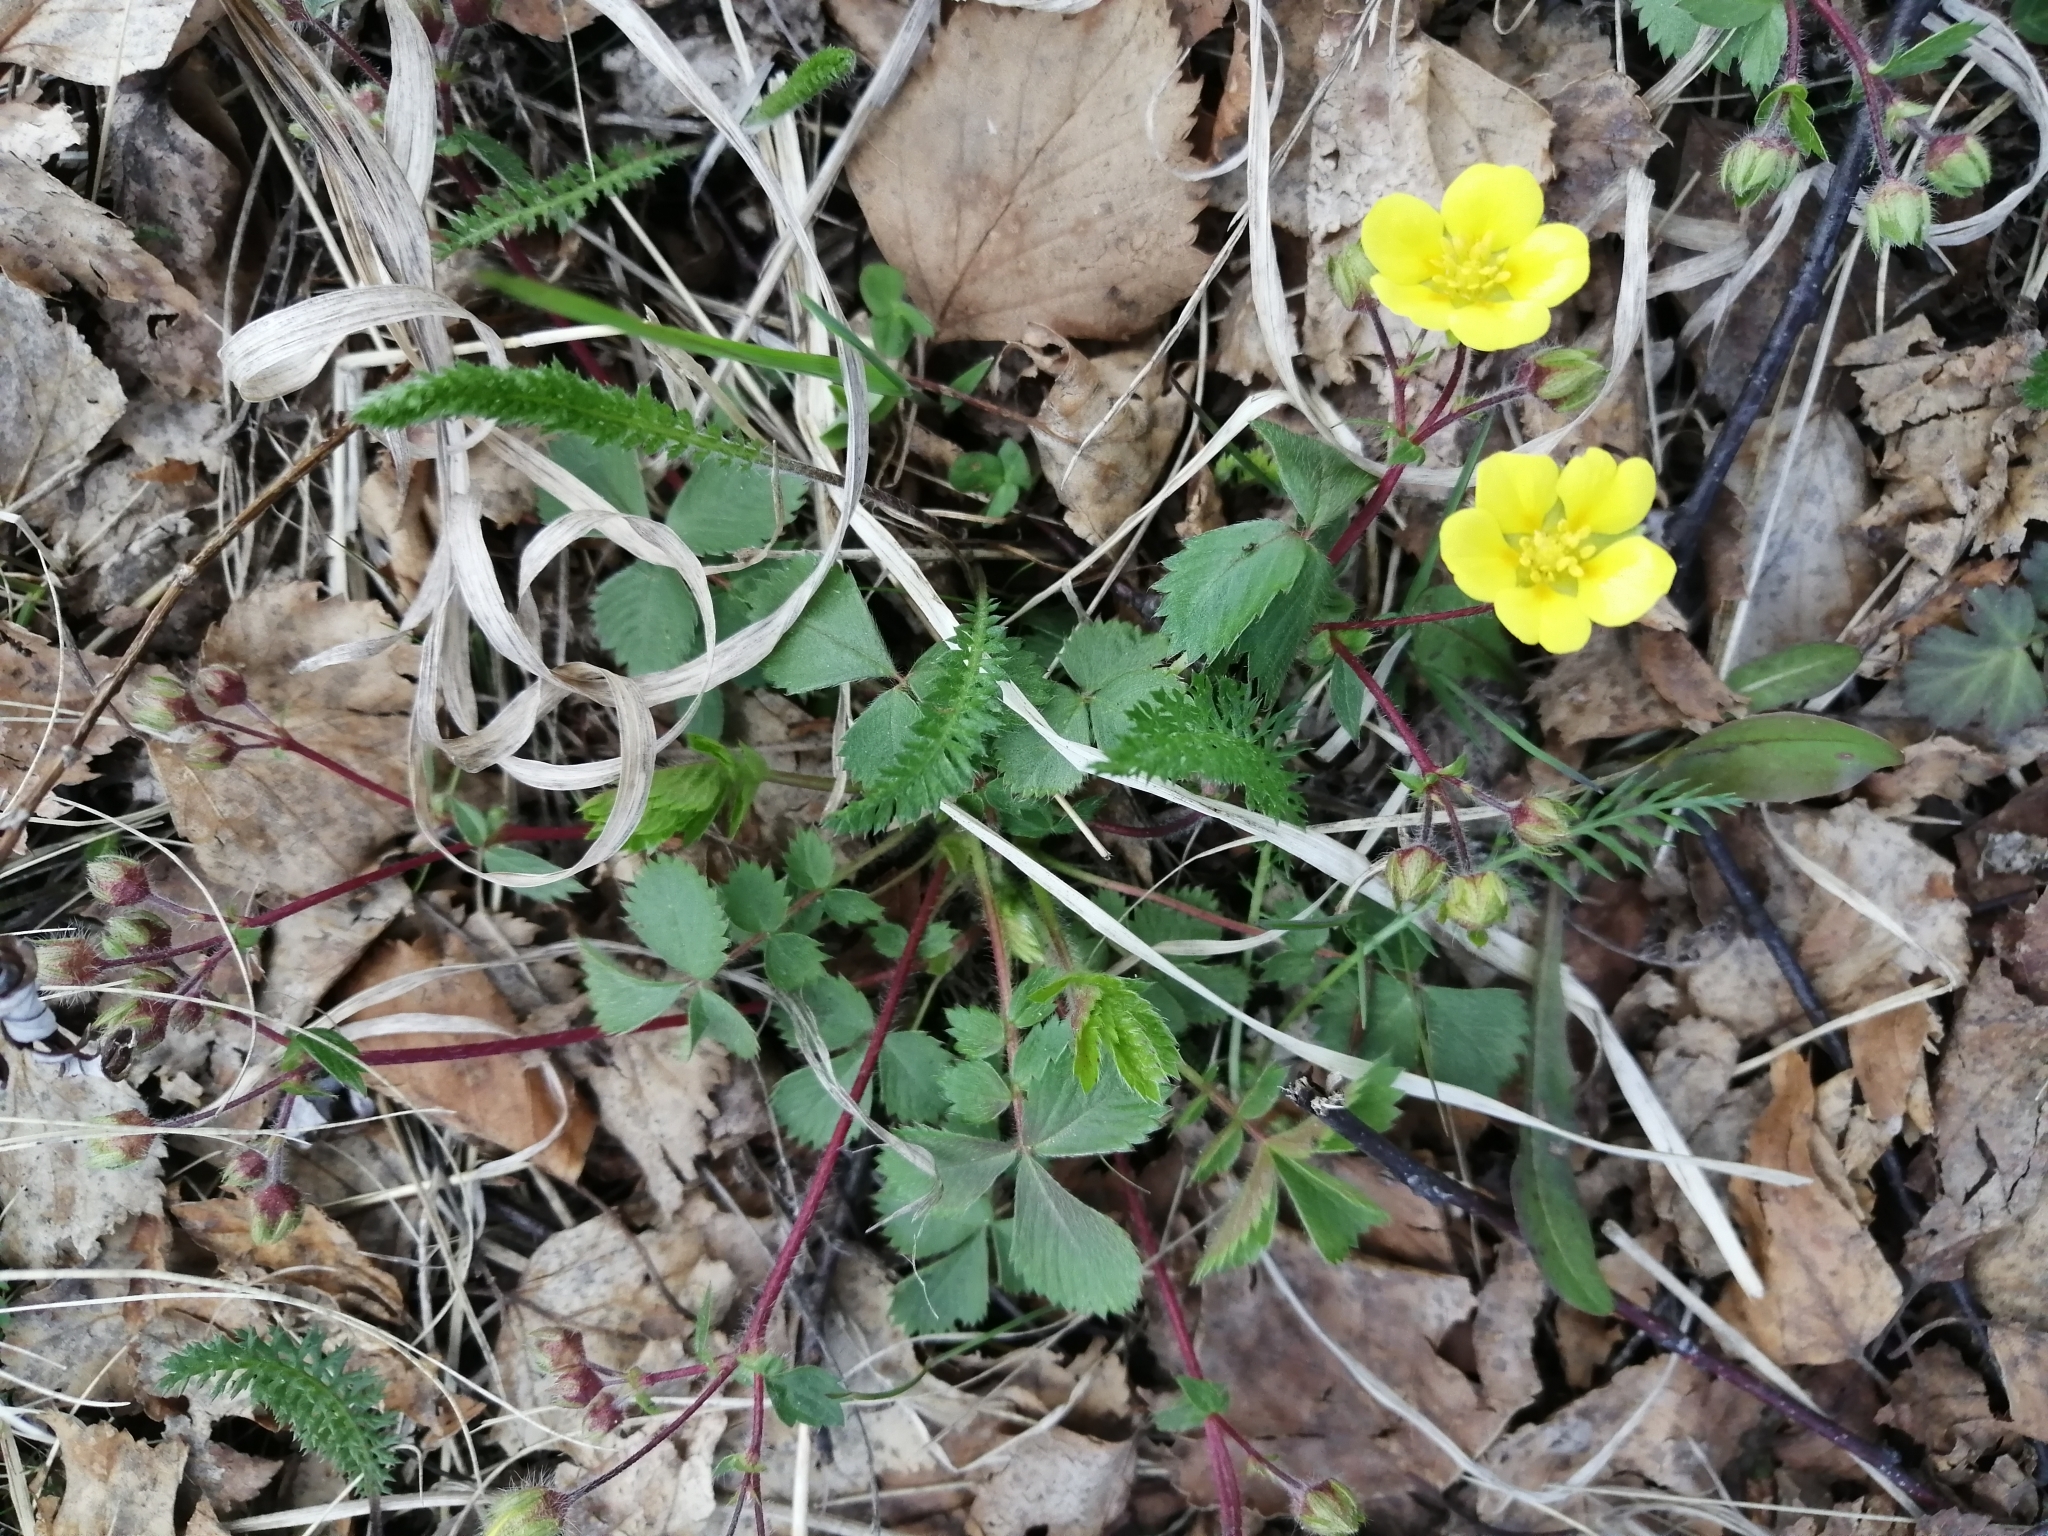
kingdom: Plantae
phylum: Tracheophyta
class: Magnoliopsida
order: Rosales
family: Rosaceae
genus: Potentilla
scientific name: Potentilla fragarioides
